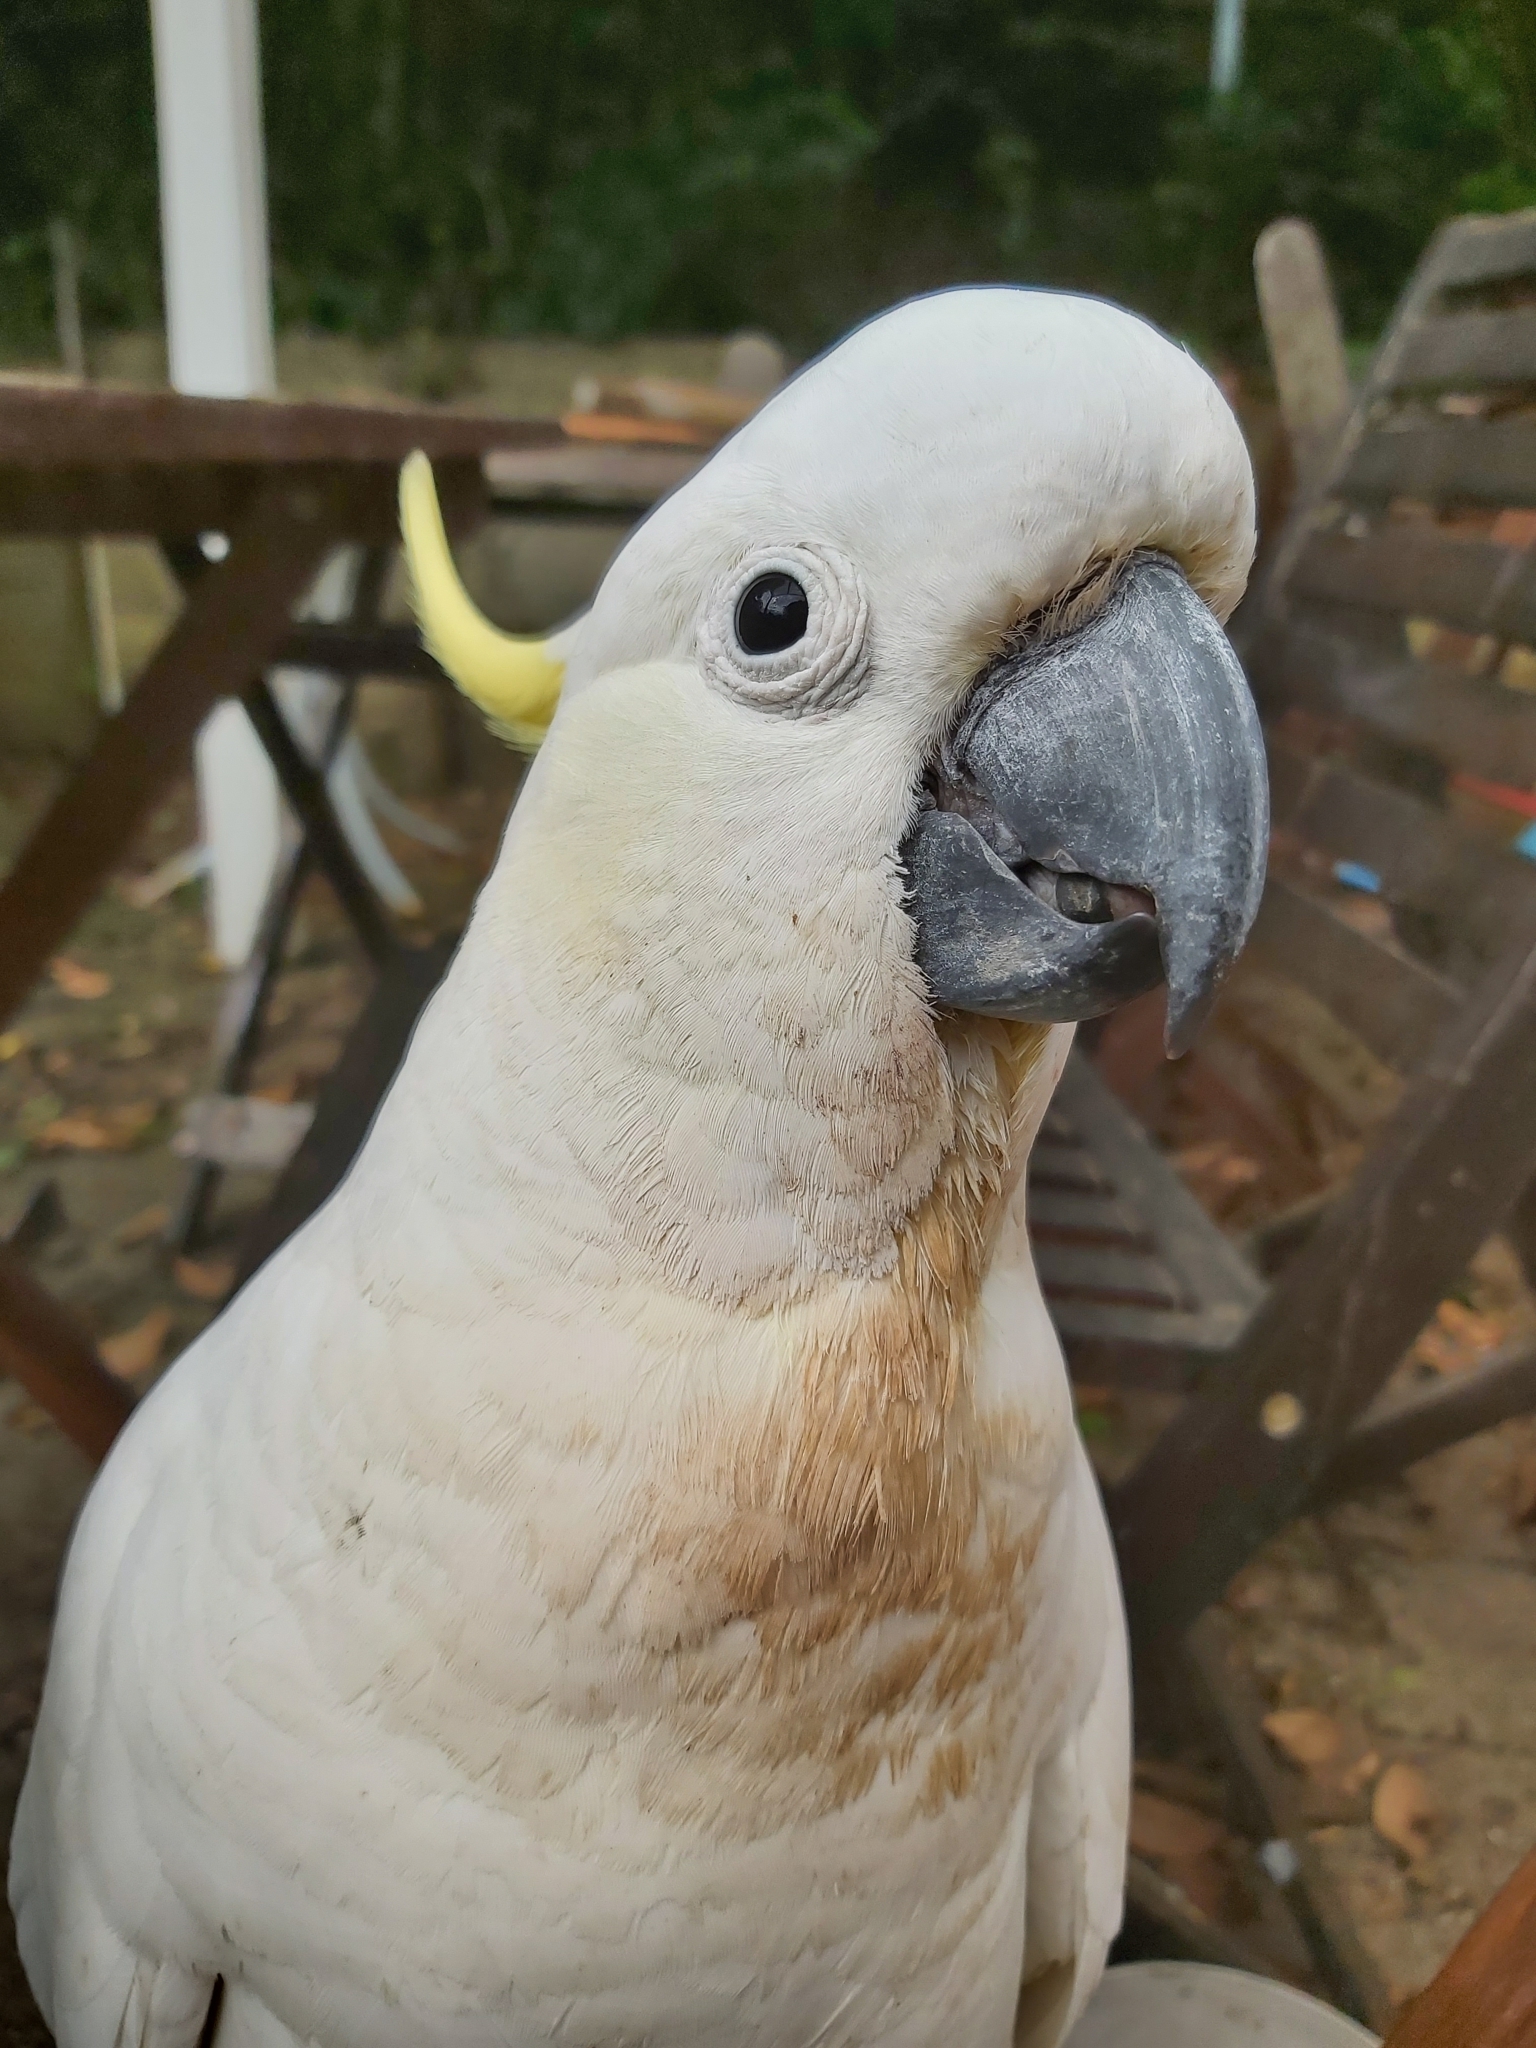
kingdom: Animalia
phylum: Chordata
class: Aves
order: Psittaciformes
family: Psittacidae
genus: Cacatua
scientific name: Cacatua galerita
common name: Sulphur-crested cockatoo
